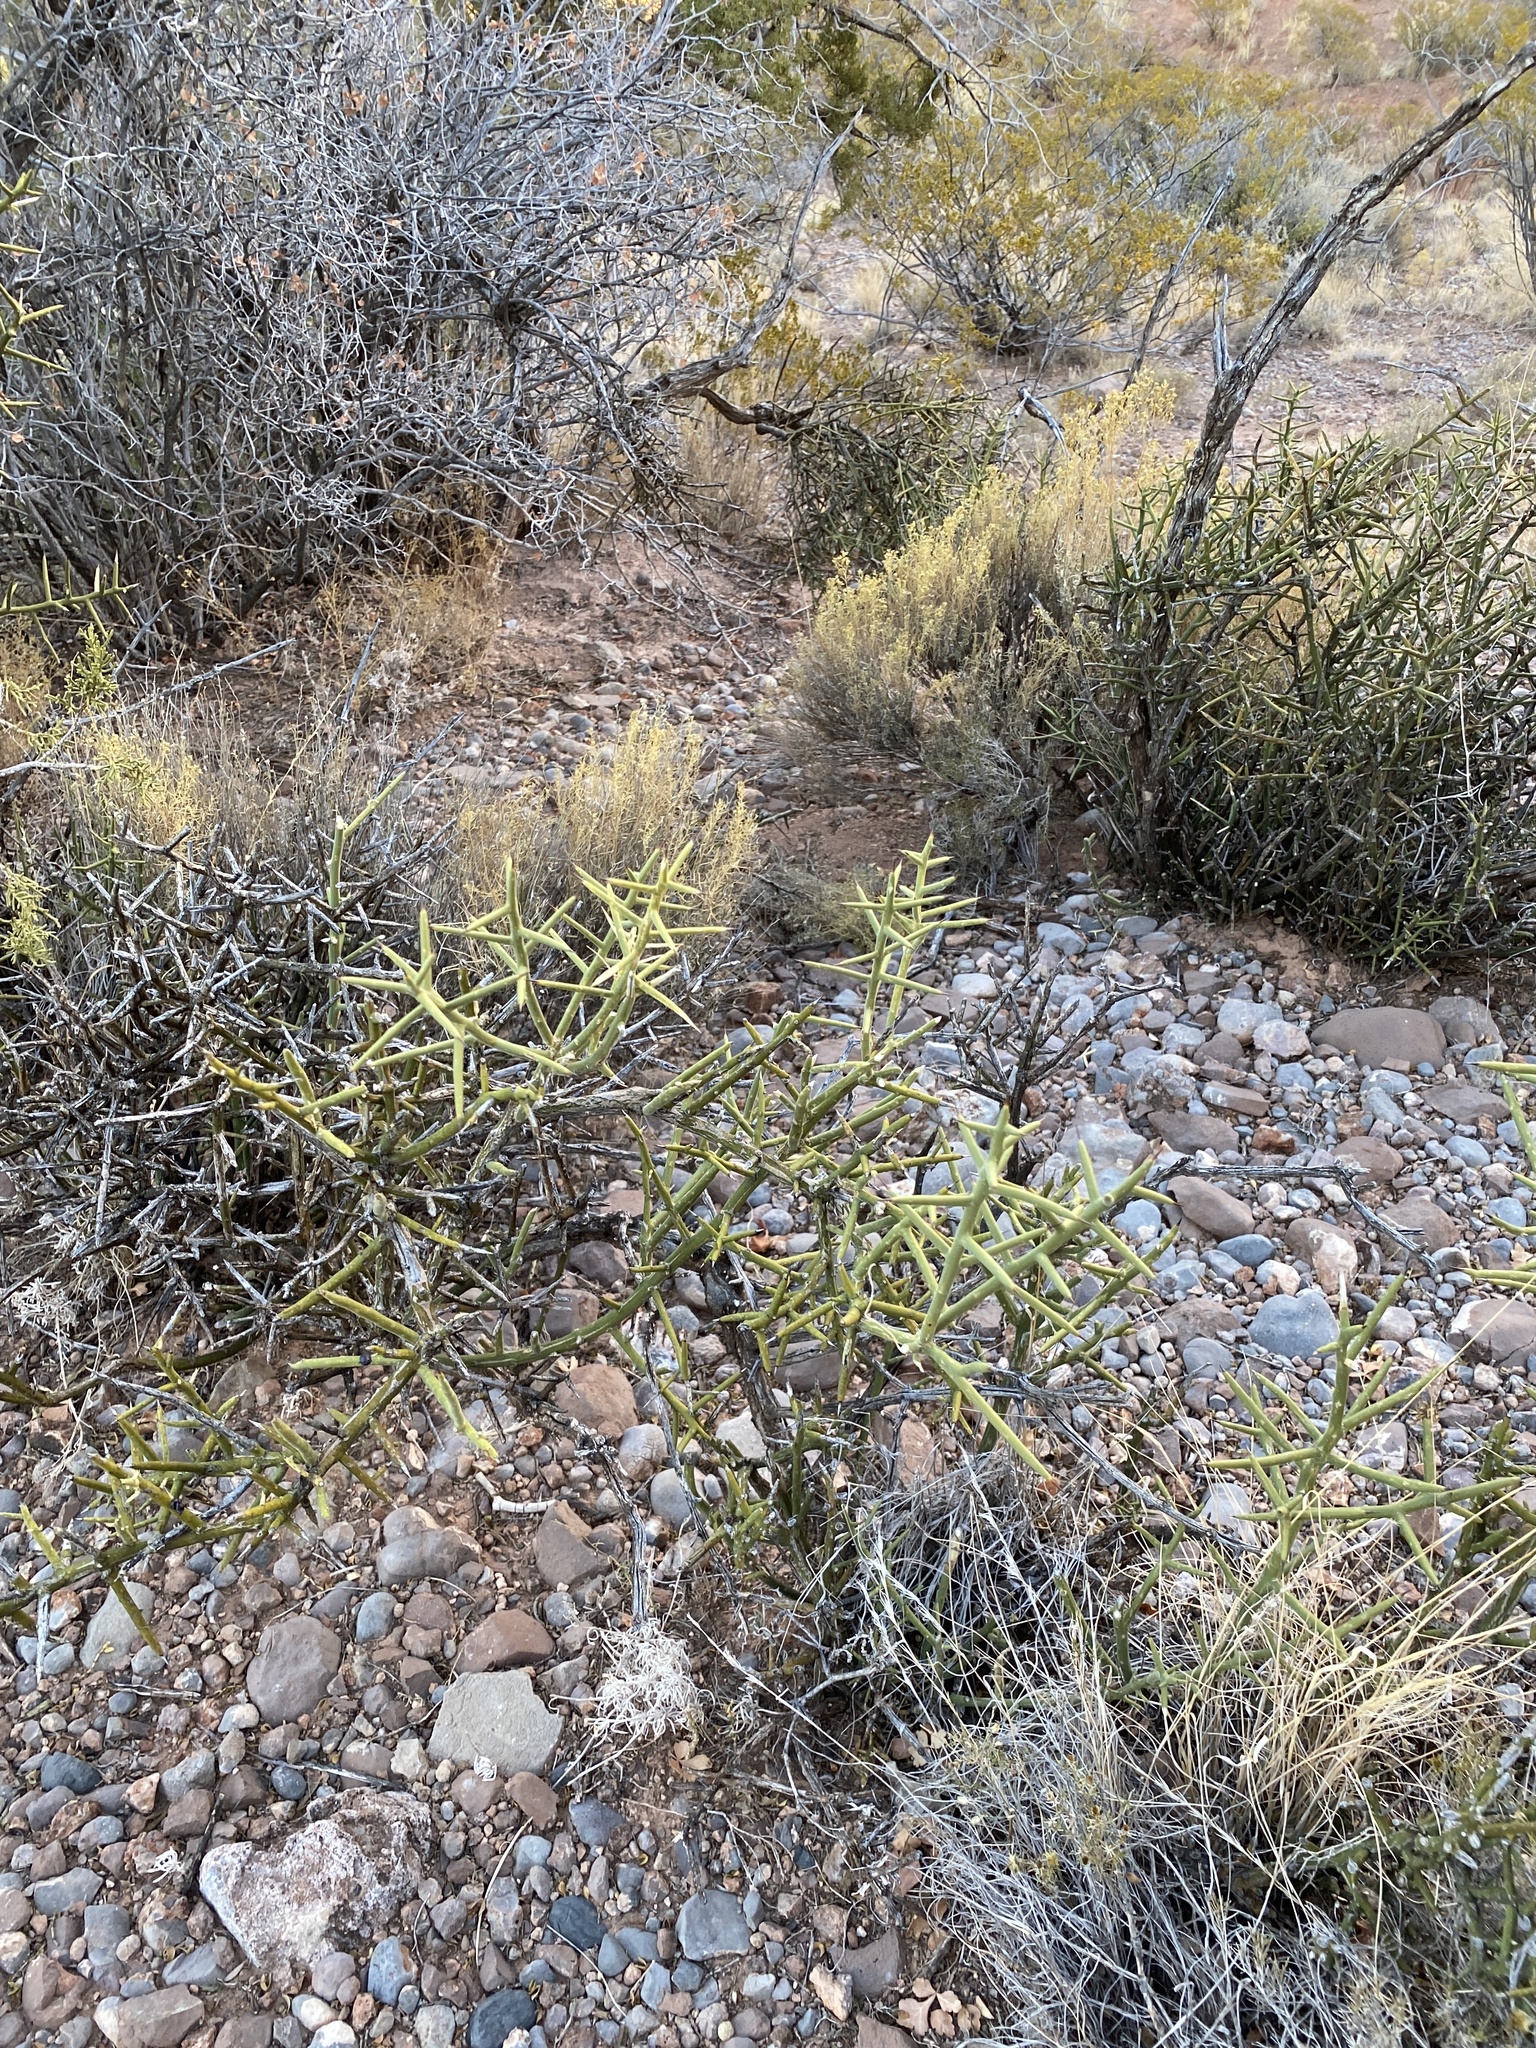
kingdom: Plantae
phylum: Tracheophyta
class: Magnoliopsida
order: Brassicales
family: Koeberliniaceae
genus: Koeberlinia
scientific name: Koeberlinia spinosa
